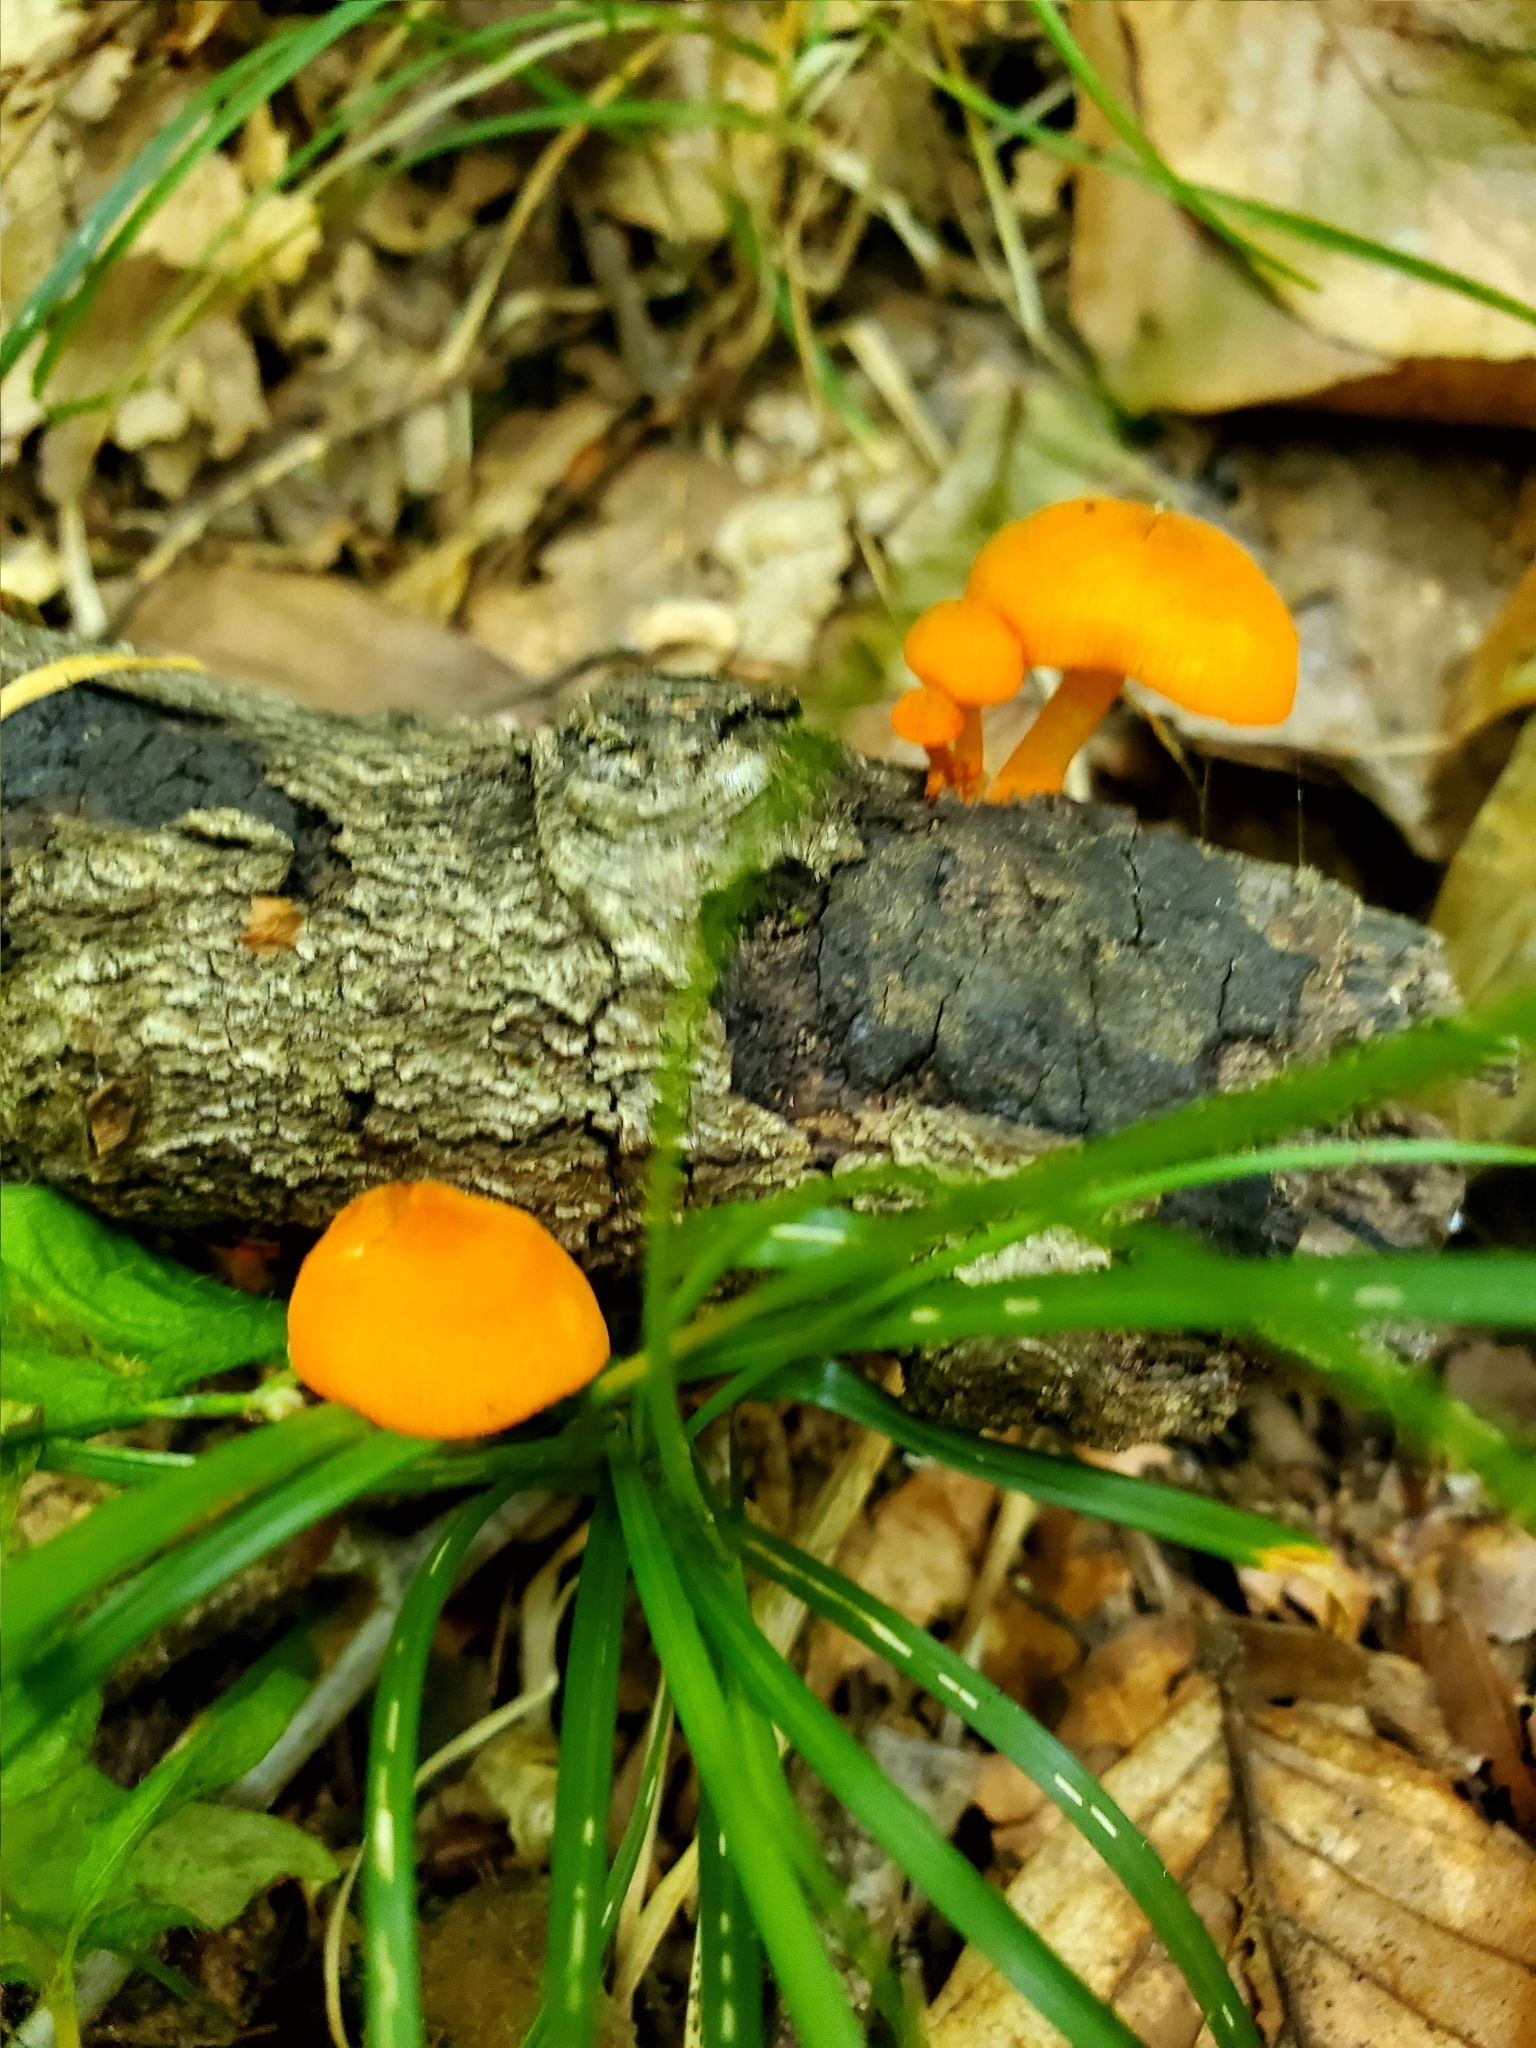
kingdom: Fungi
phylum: Basidiomycota
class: Agaricomycetes
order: Agaricales
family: Mycenaceae
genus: Mycena
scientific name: Mycena leaiana
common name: Orange mycena
